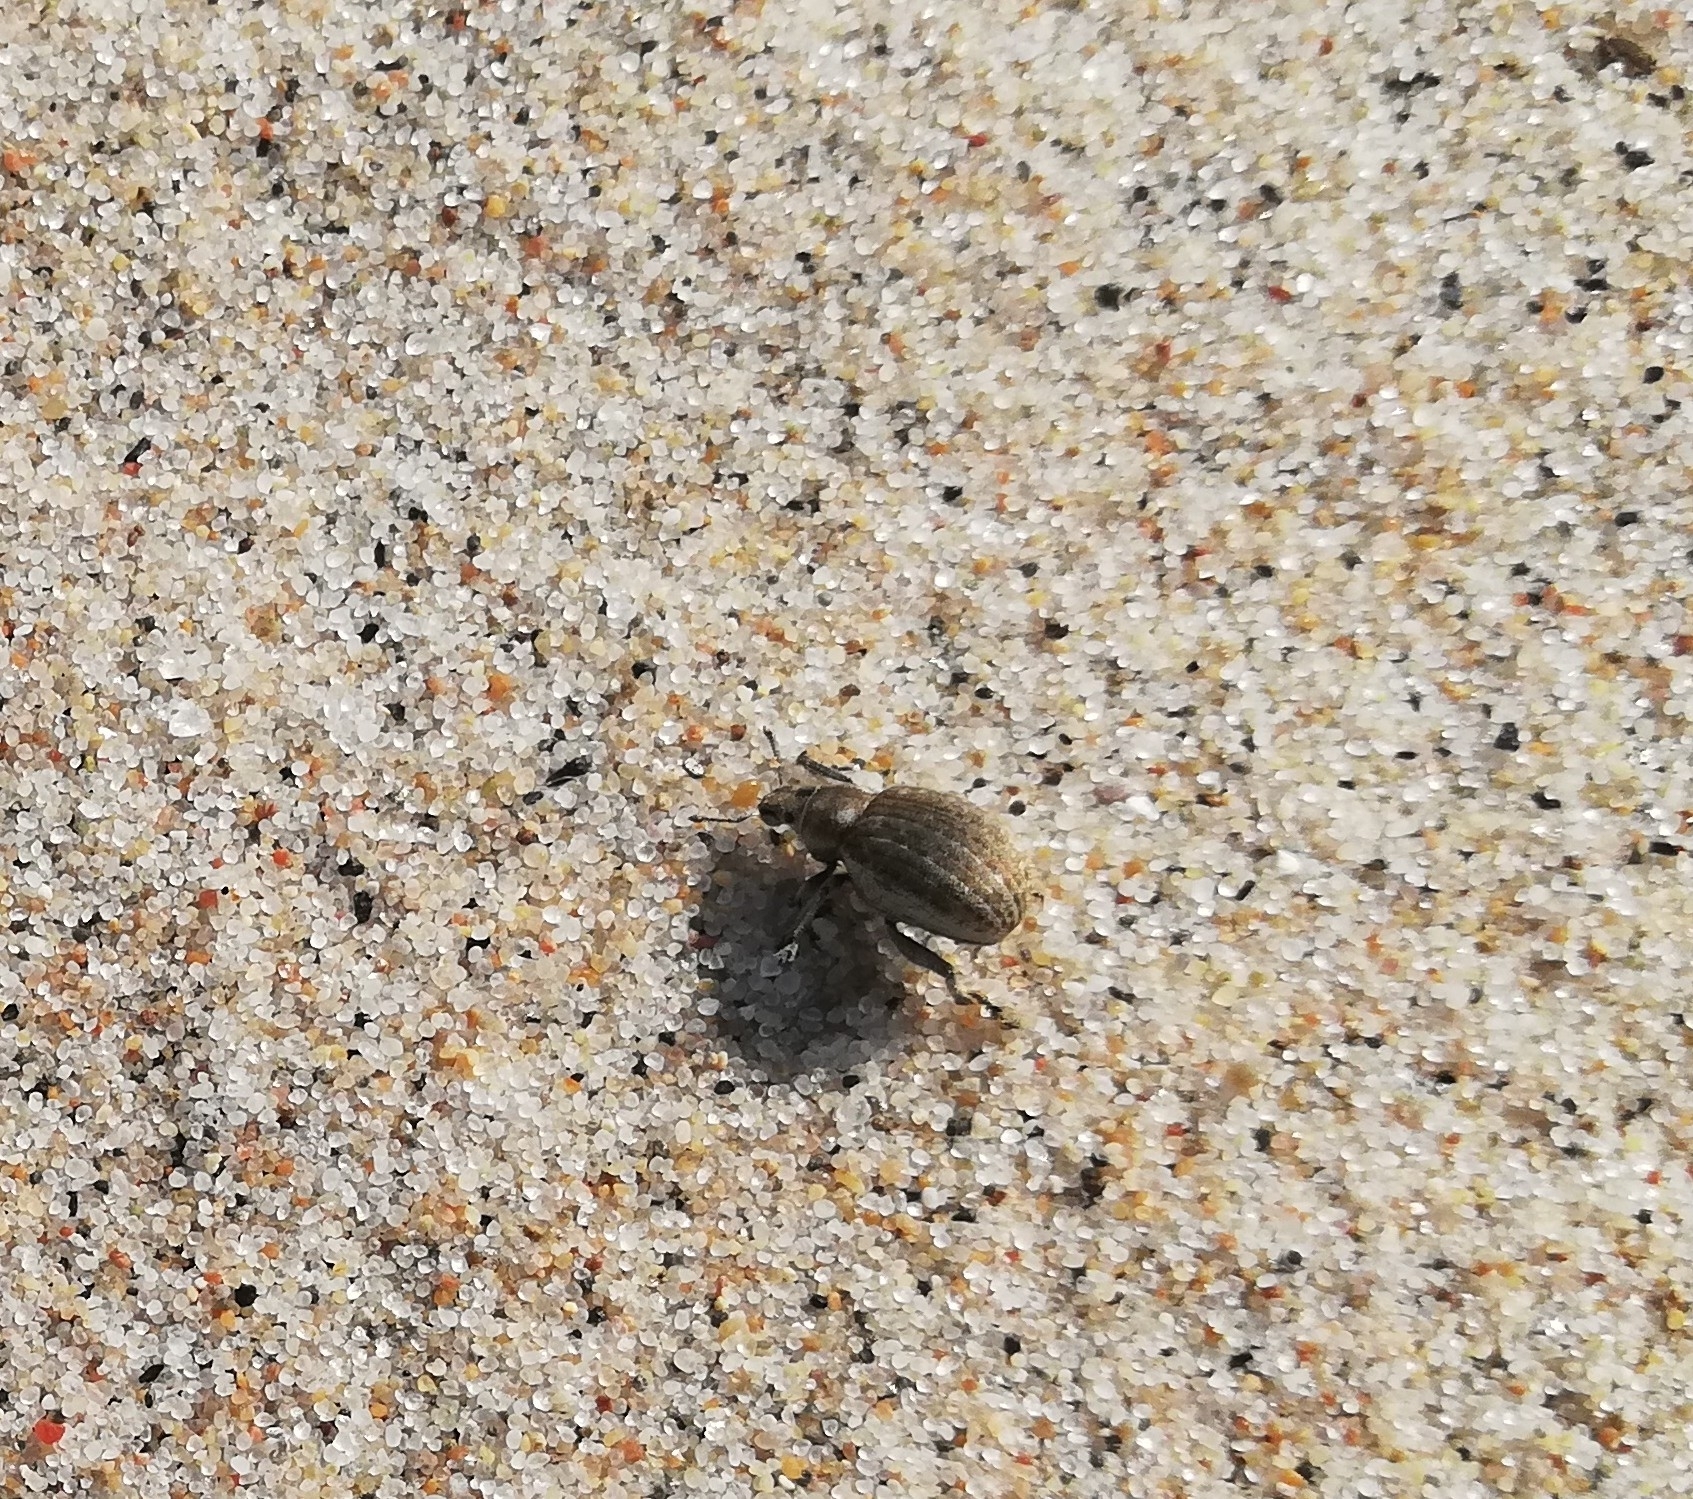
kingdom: Animalia
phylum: Arthropoda
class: Insecta
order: Coleoptera
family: Curculionidae
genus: Philopedon
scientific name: Philopedon plagiatum
